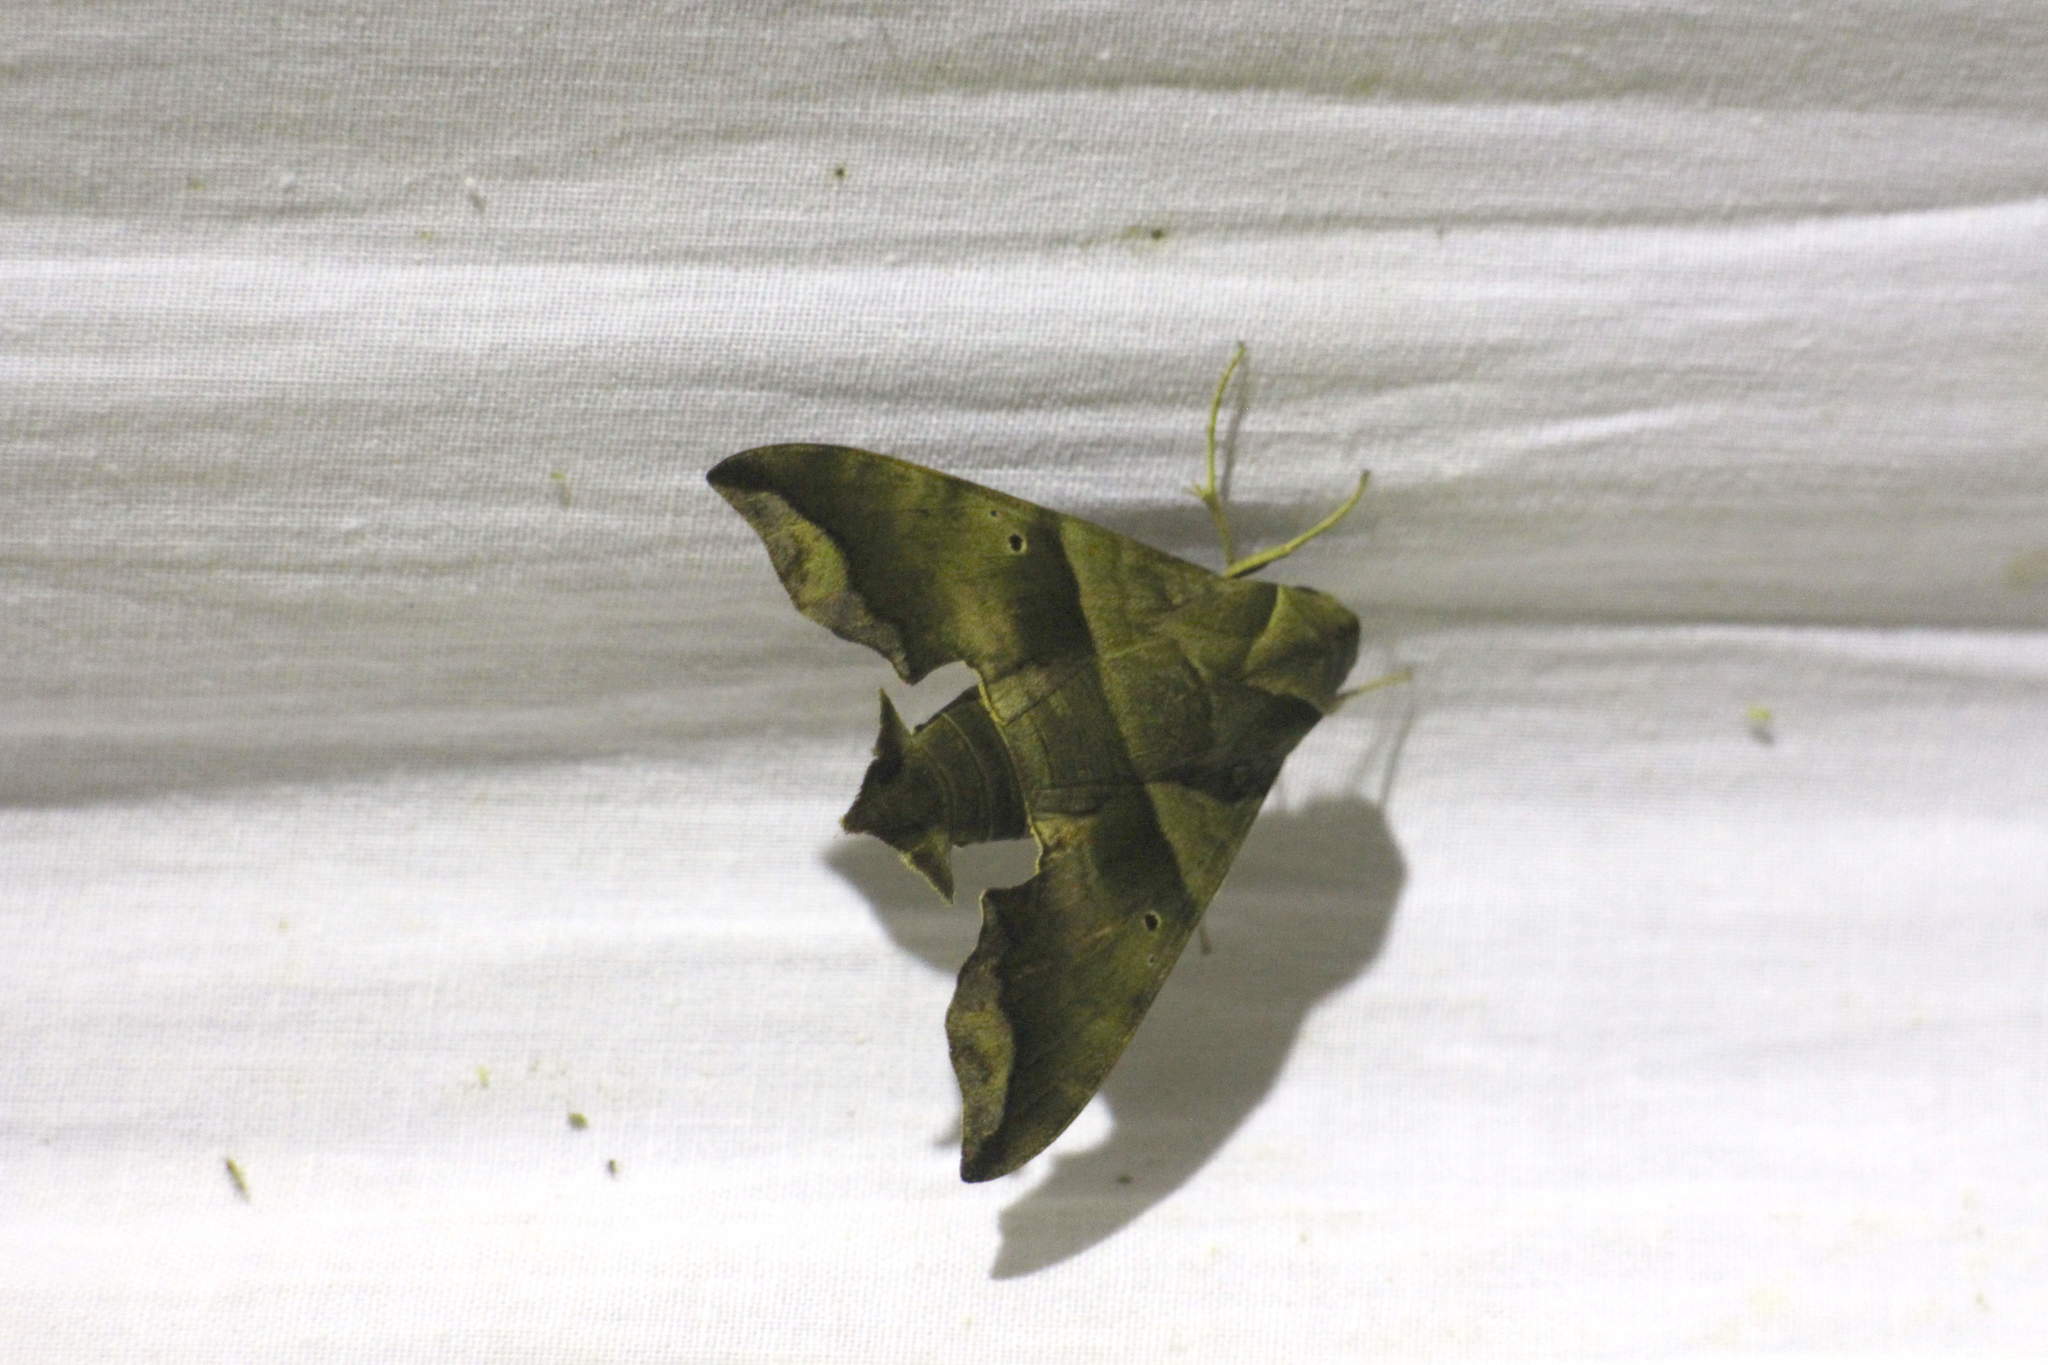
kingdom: Animalia
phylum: Arthropoda
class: Insecta
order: Lepidoptera
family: Sphingidae
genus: Perigonia
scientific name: Perigonia lusca
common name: Half-blind sphinx
